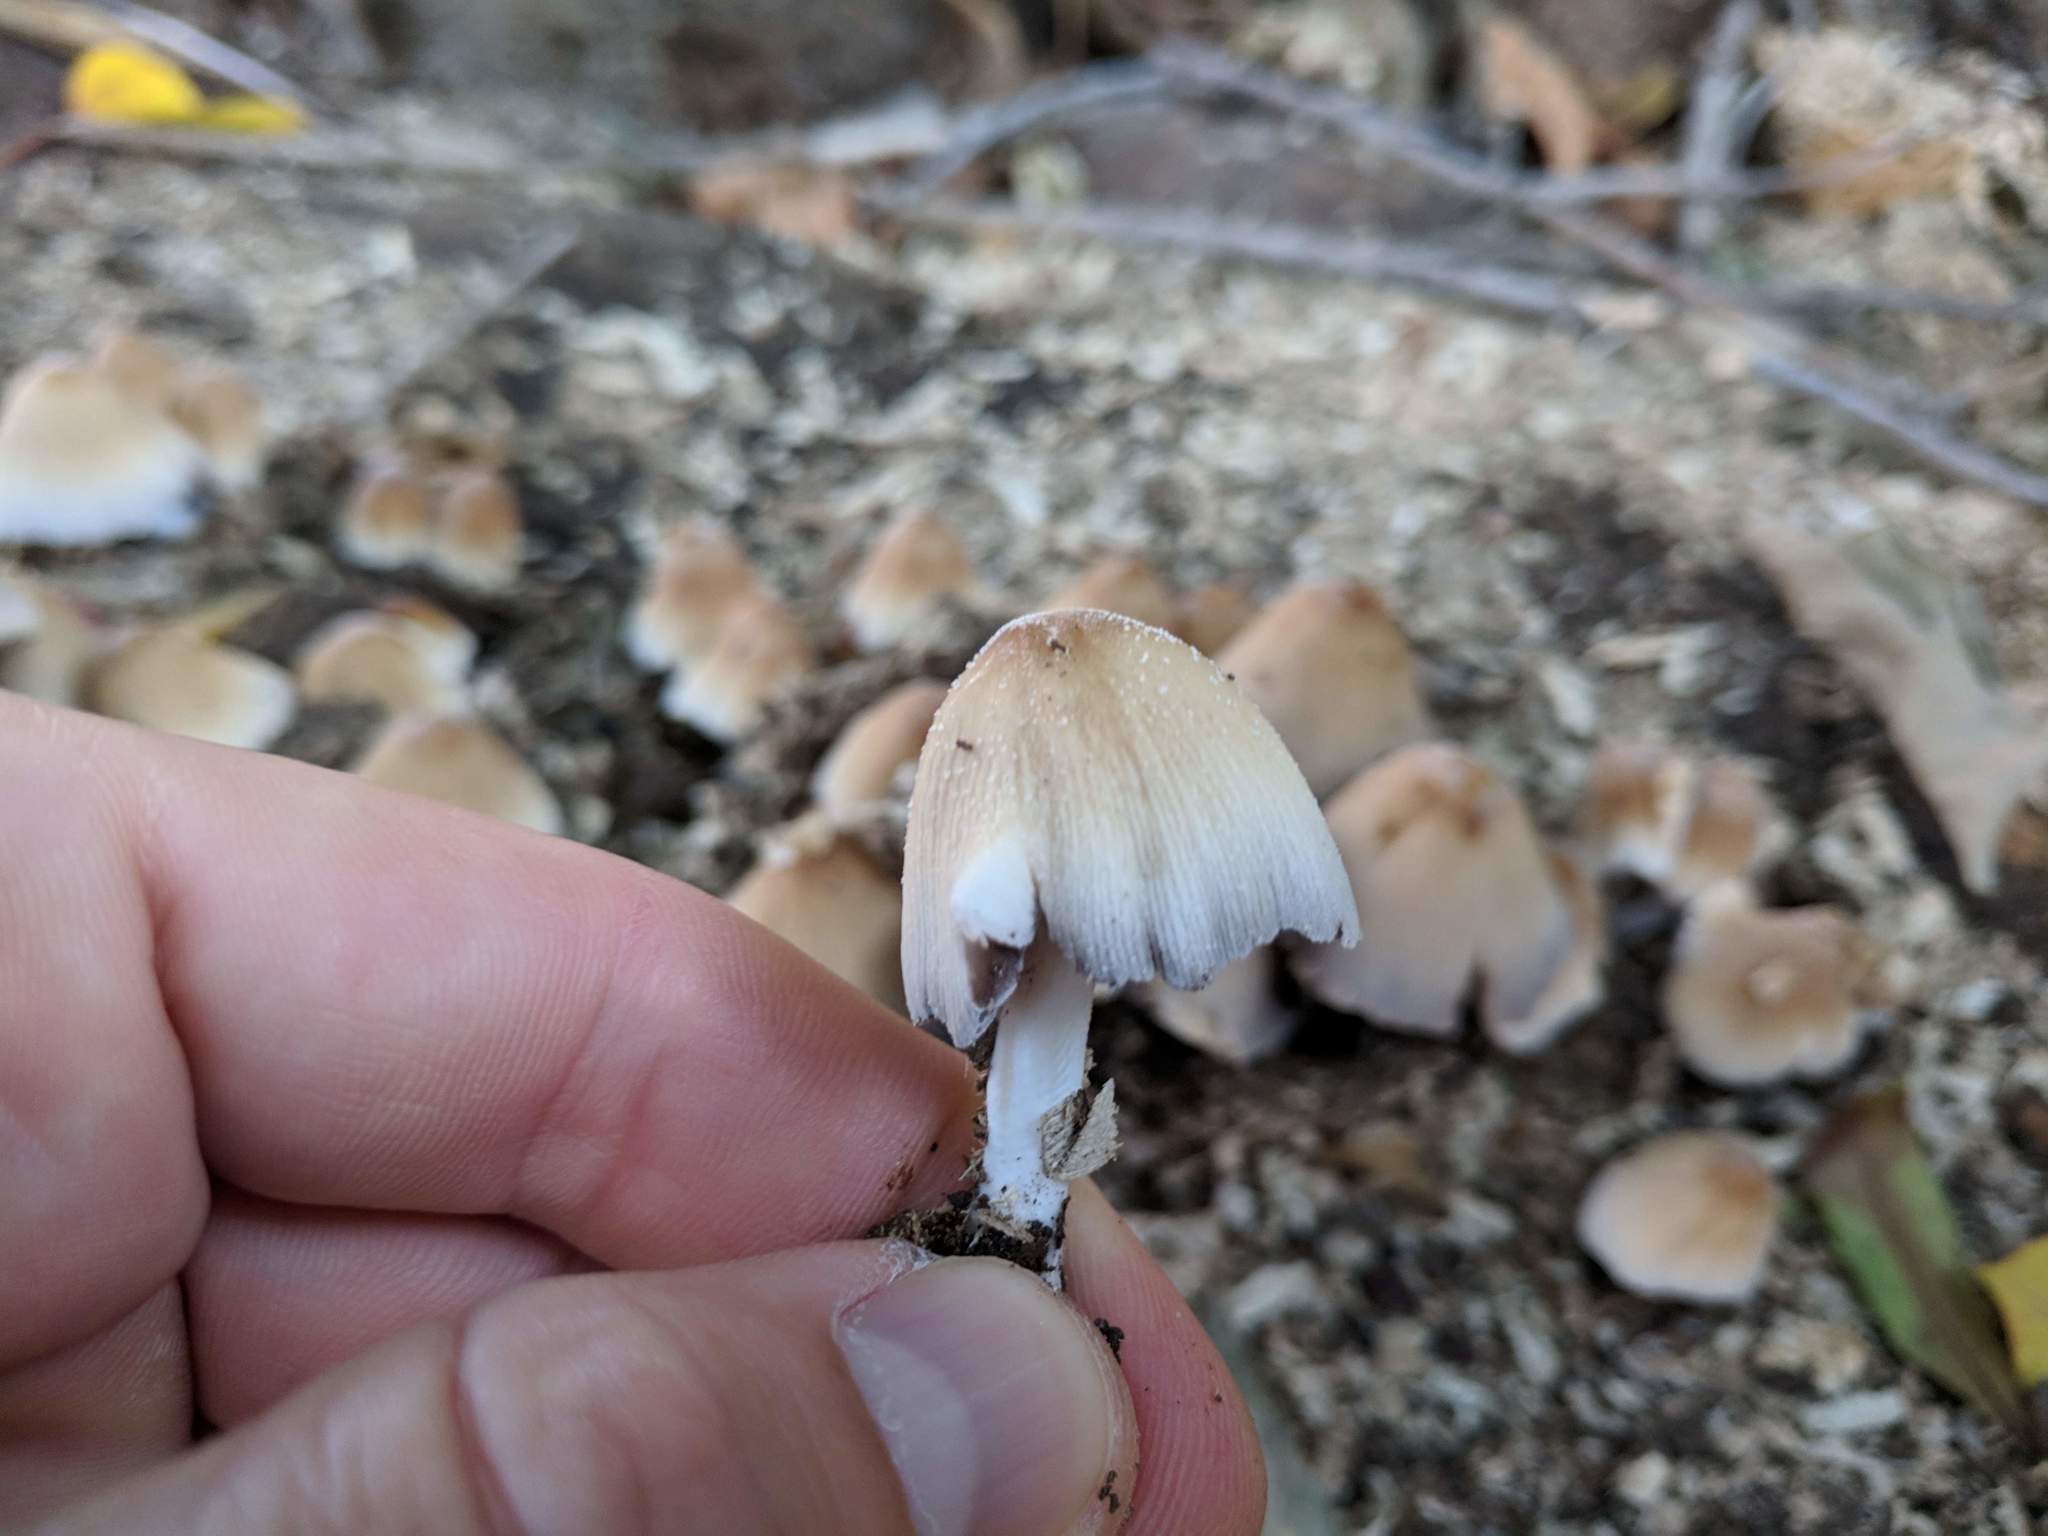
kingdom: Fungi
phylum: Basidiomycota
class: Agaricomycetes
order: Agaricales
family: Psathyrellaceae
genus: Coprinellus
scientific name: Coprinellus micaceus
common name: Glistening ink-cap
